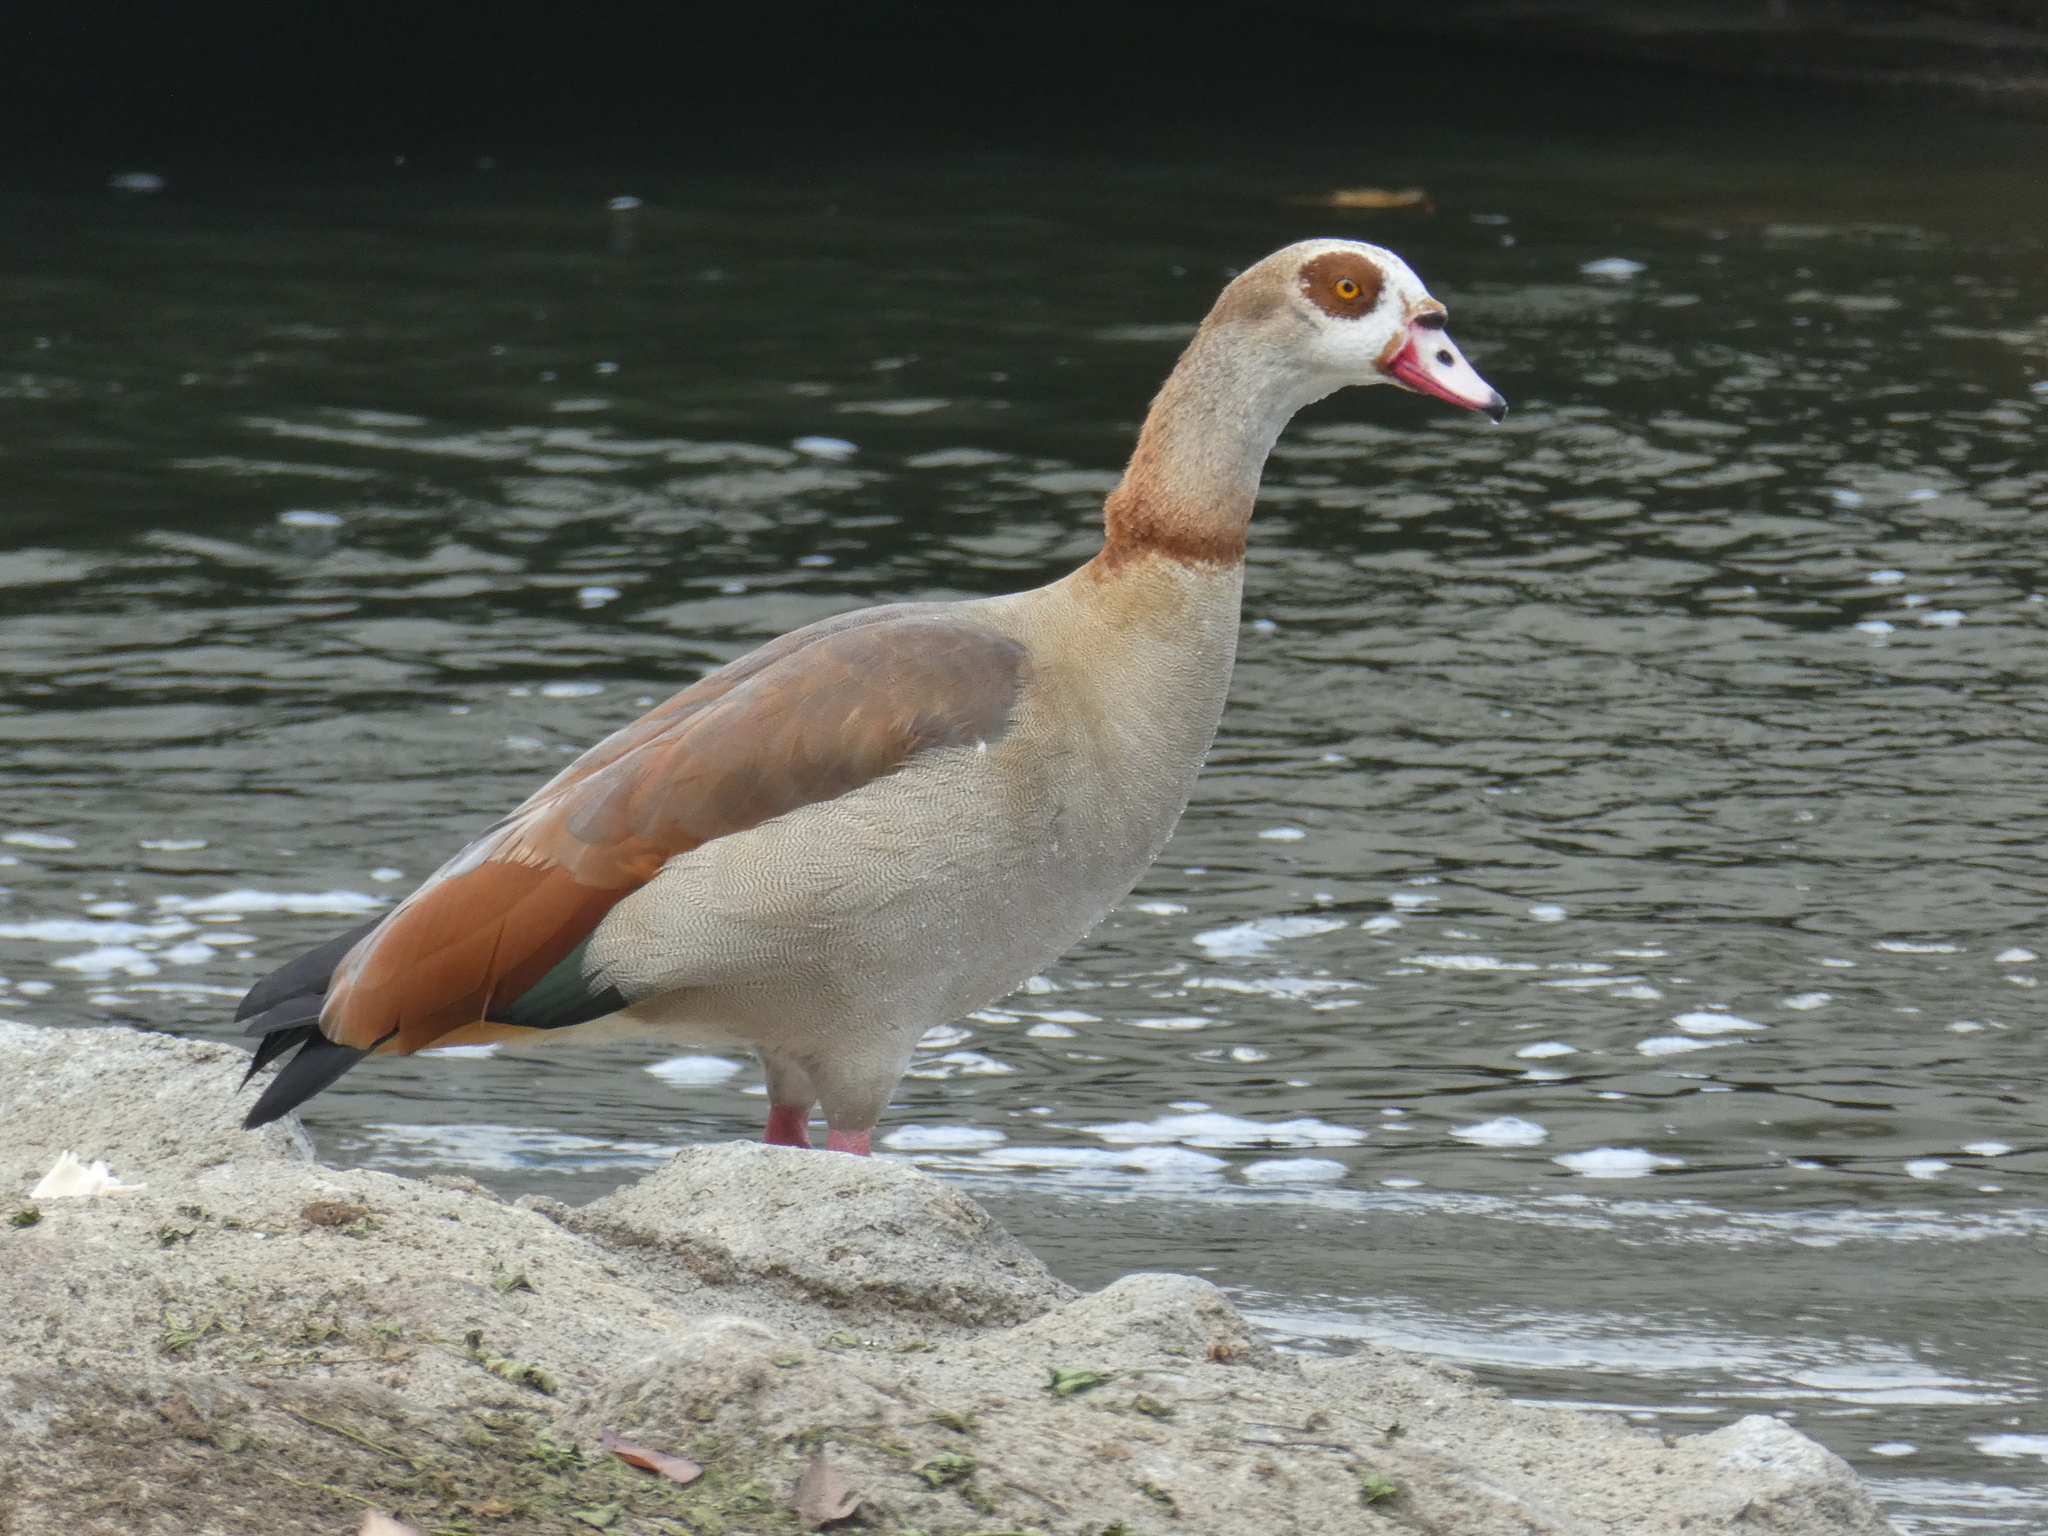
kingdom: Animalia
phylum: Chordata
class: Aves
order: Anseriformes
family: Anatidae
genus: Alopochen
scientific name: Alopochen aegyptiaca
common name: Egyptian goose
